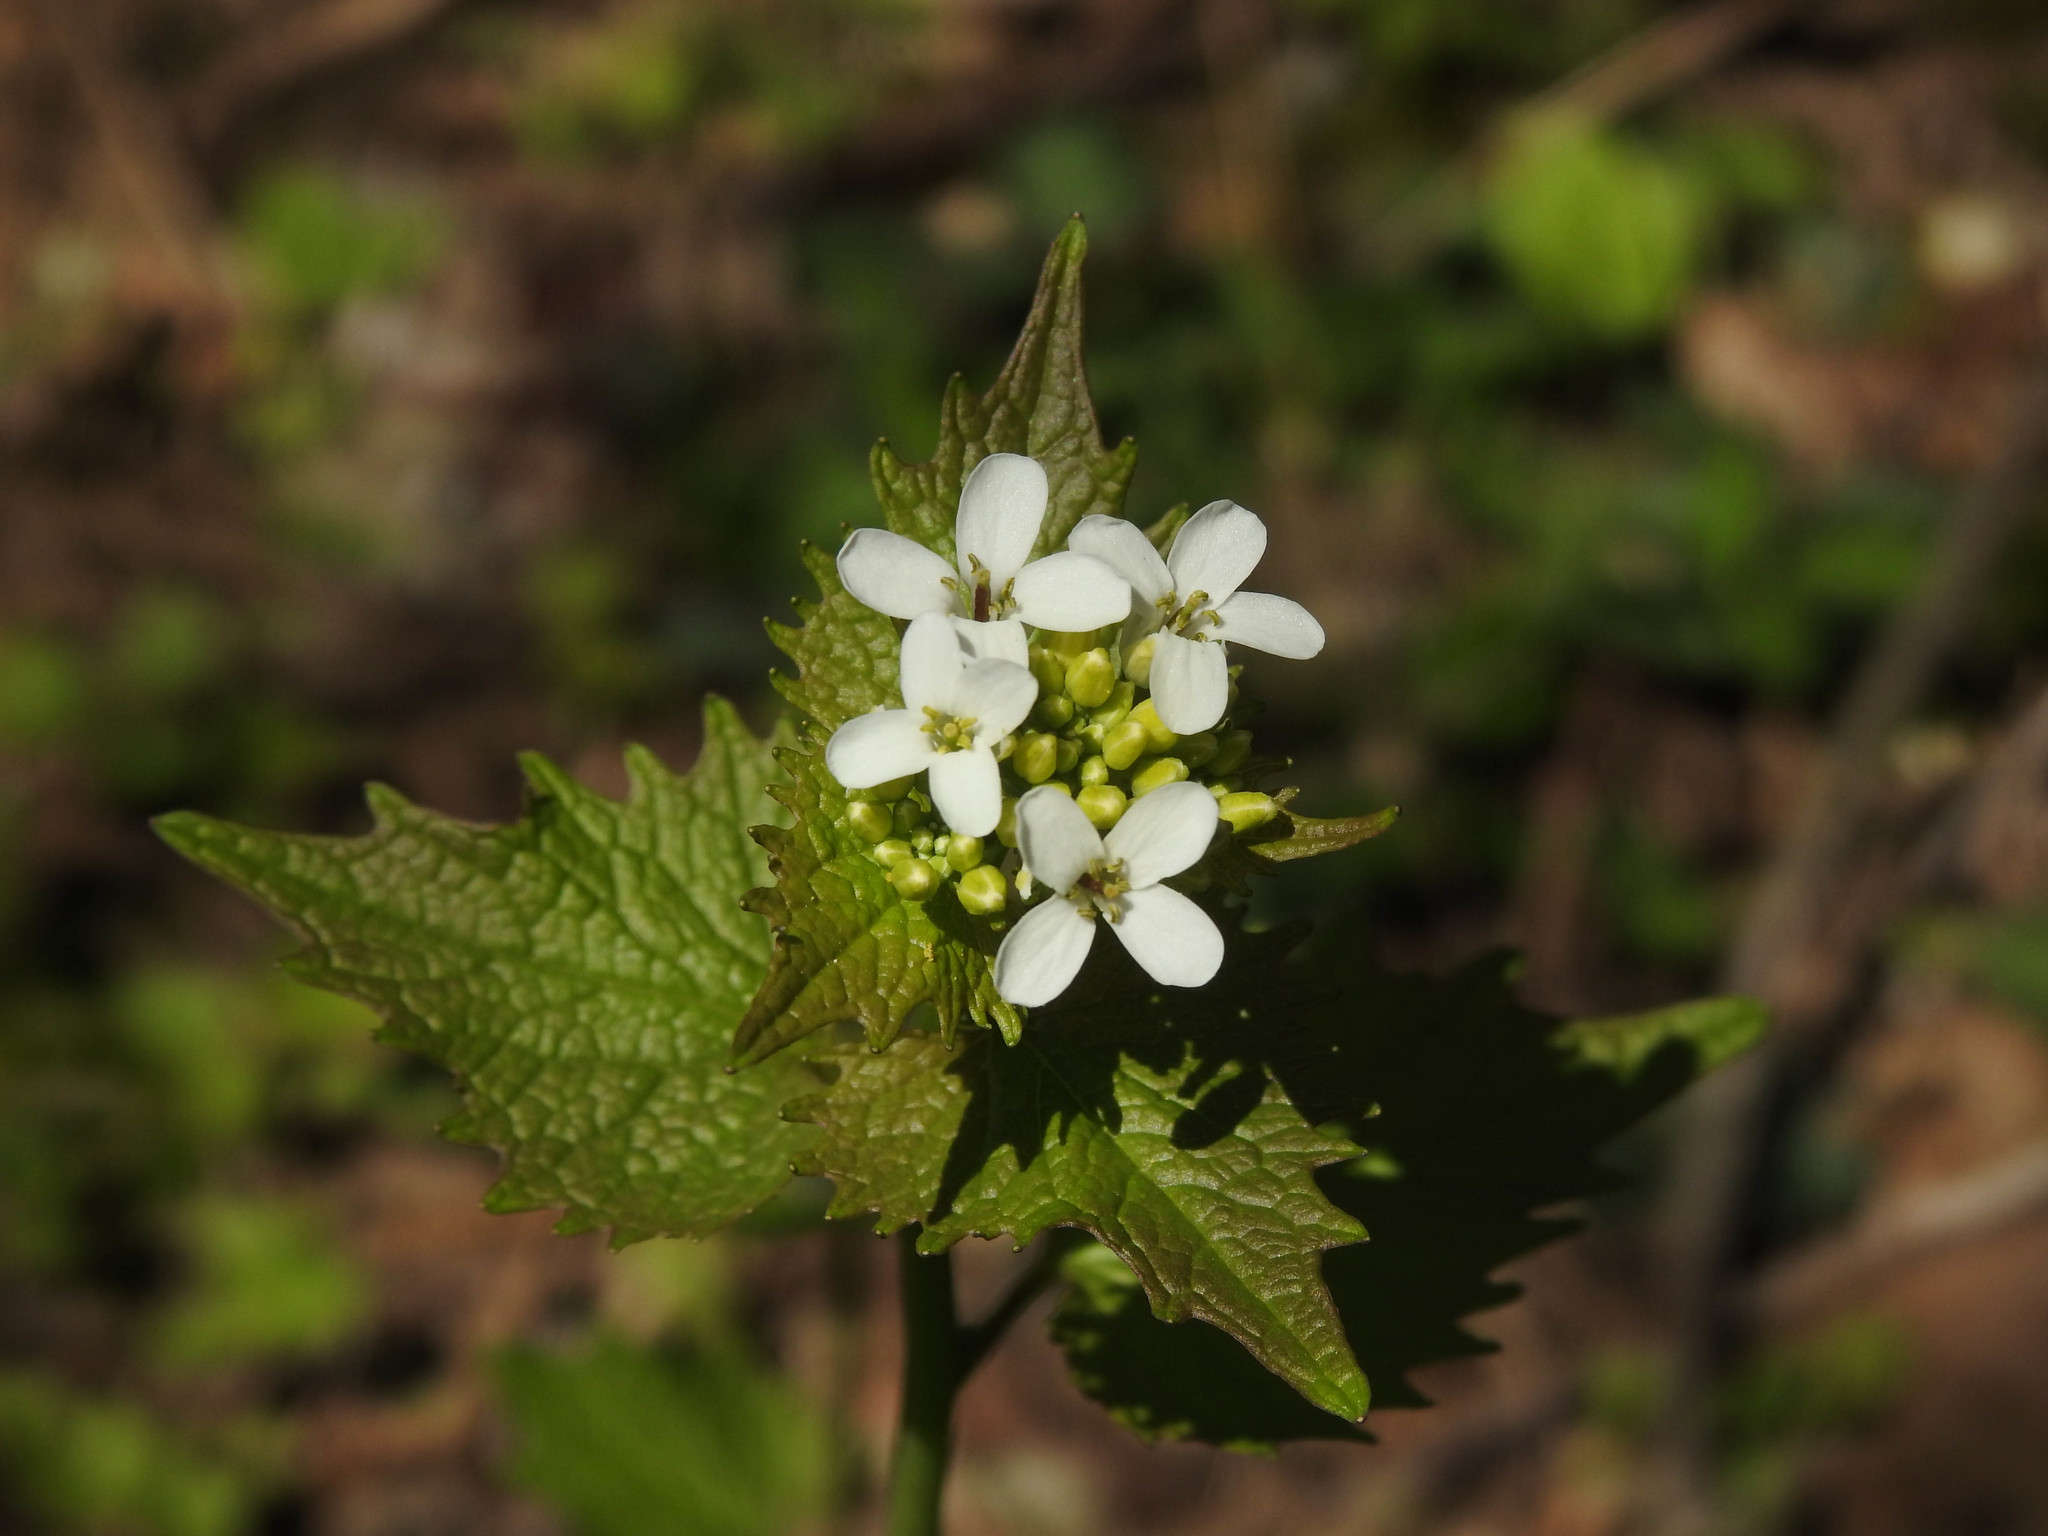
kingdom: Plantae
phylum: Tracheophyta
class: Magnoliopsida
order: Brassicales
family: Brassicaceae
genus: Alliaria
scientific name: Alliaria petiolata
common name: Garlic mustard
